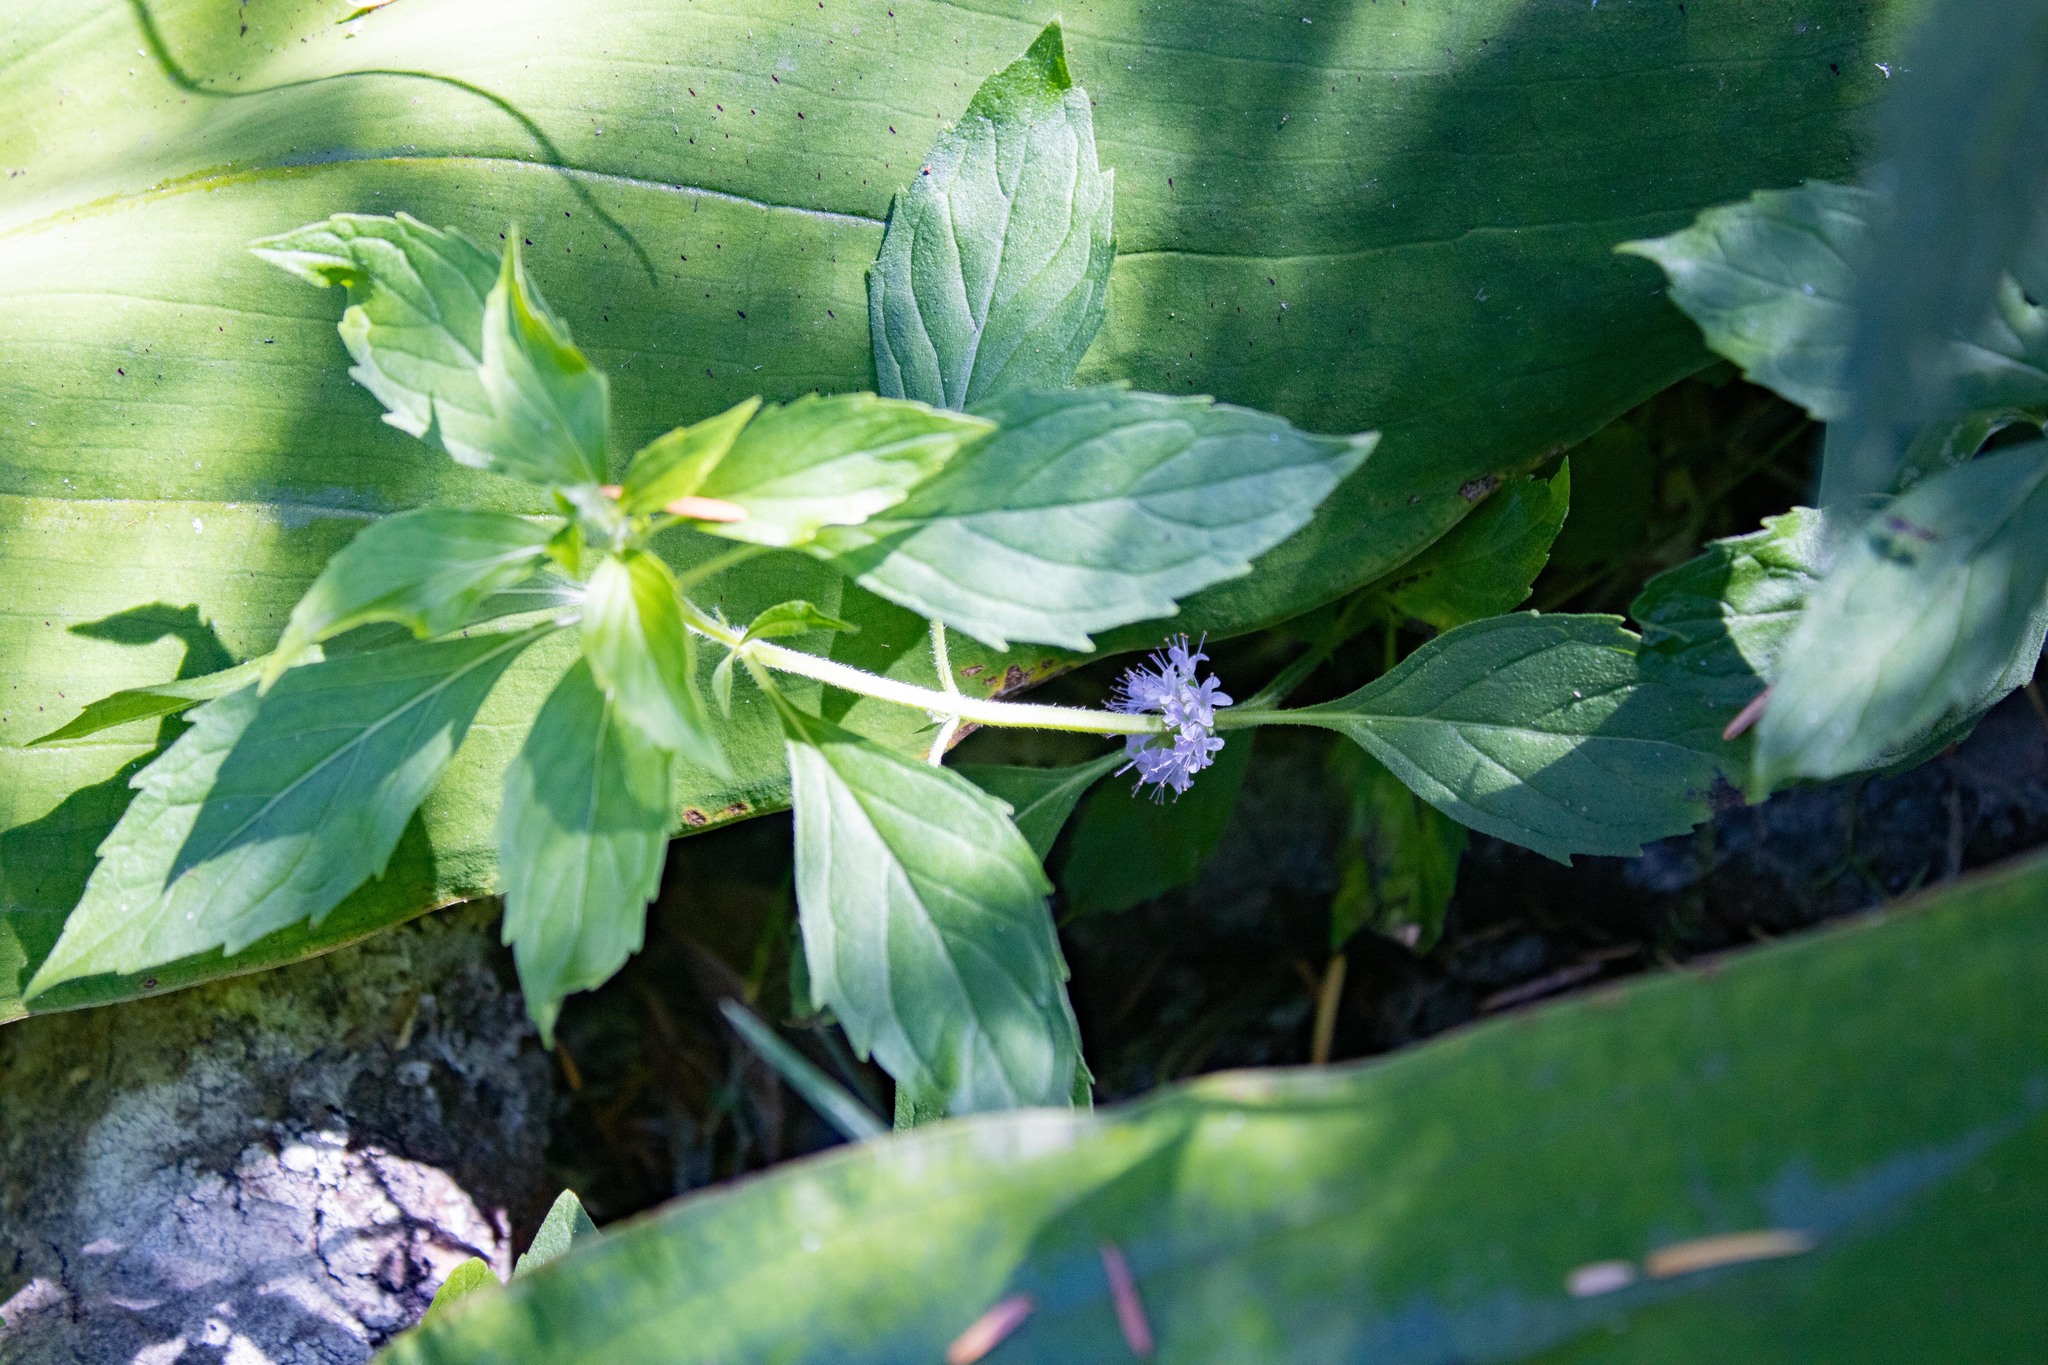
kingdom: Plantae
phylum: Tracheophyta
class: Magnoliopsida
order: Lamiales
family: Lamiaceae
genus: Mentha
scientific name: Mentha canadensis
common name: American corn mint
